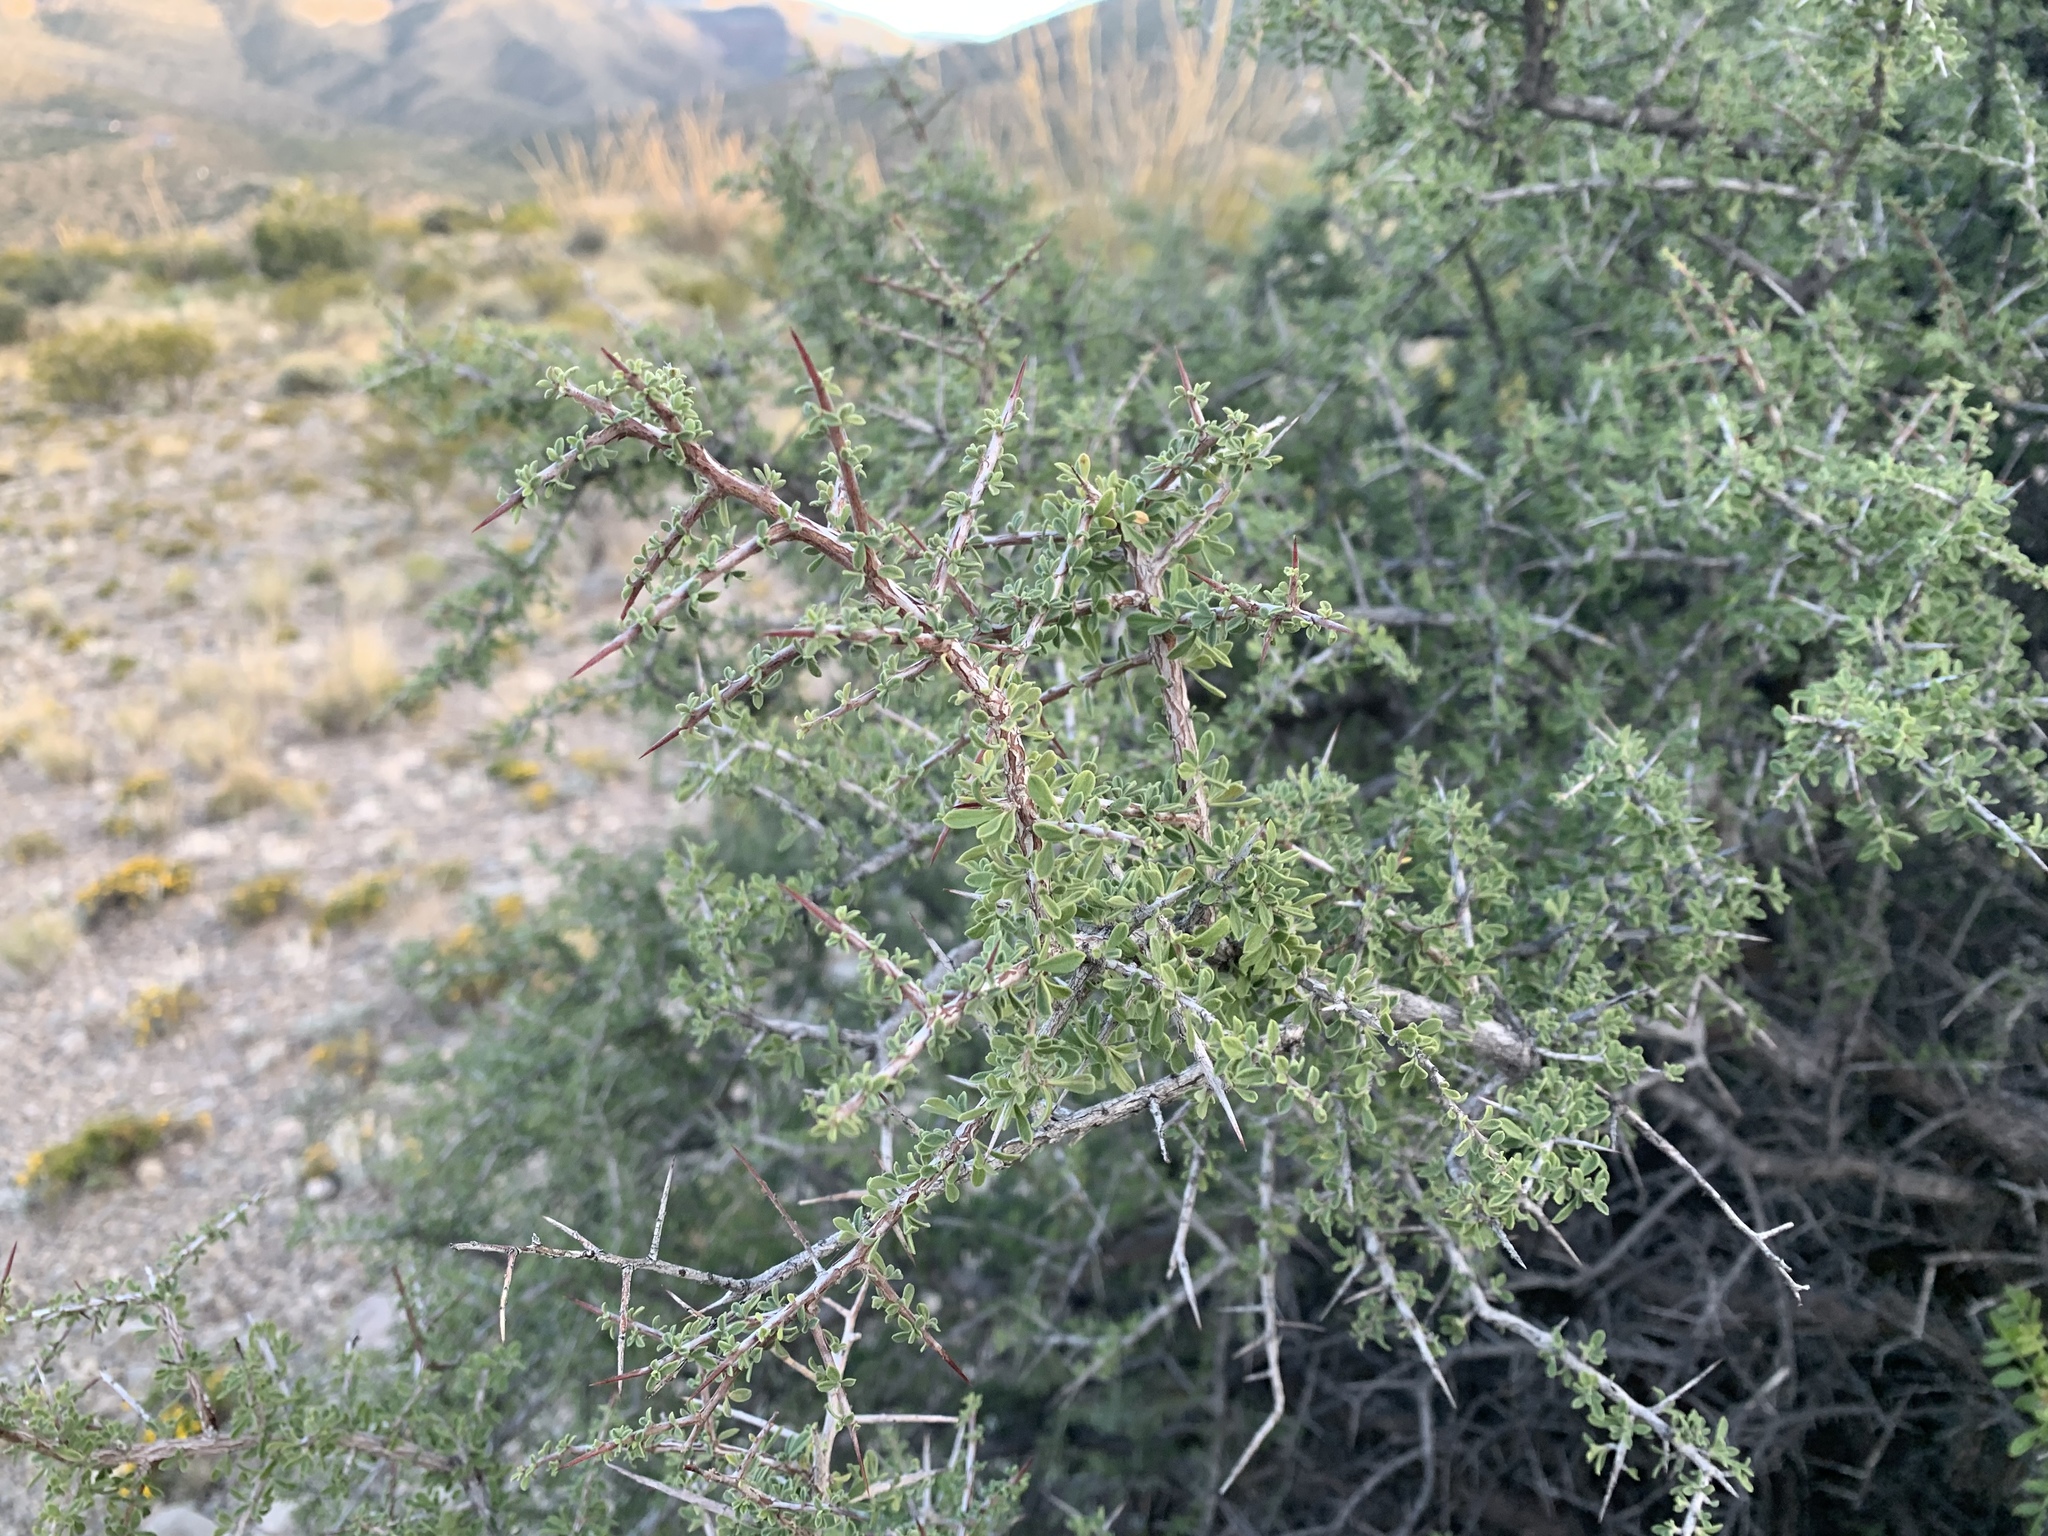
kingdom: Plantae
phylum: Tracheophyta
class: Magnoliopsida
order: Rosales
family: Rhamnaceae
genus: Condalia
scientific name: Condalia warnockii
